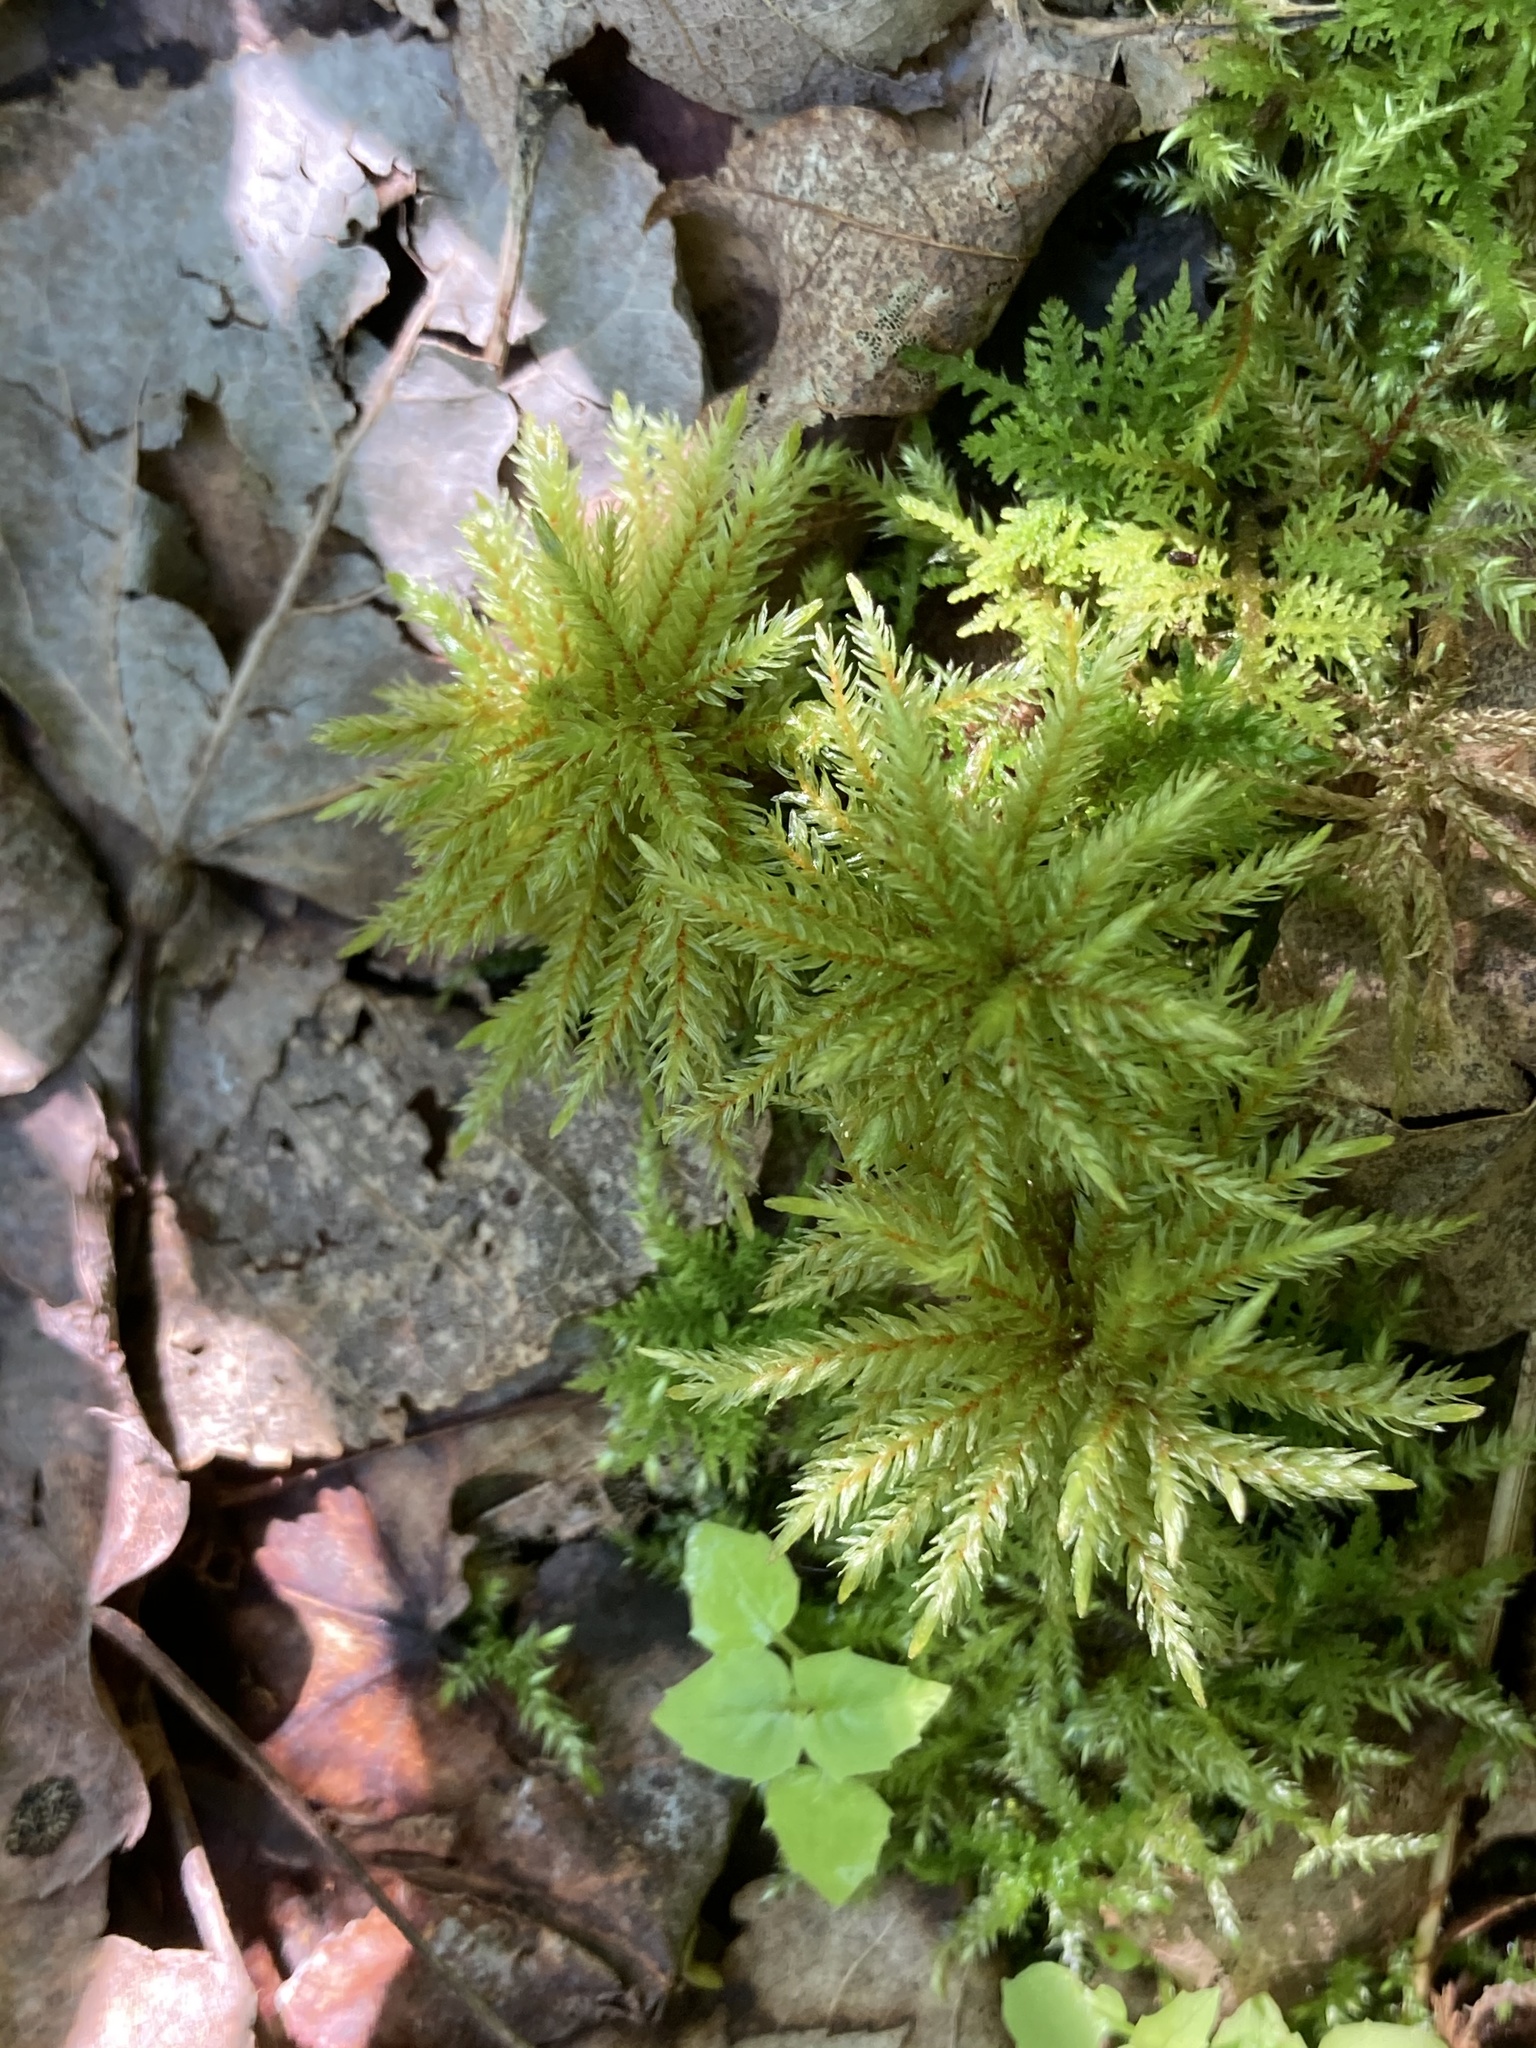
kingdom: Plantae
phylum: Bryophyta
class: Bryopsida
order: Hypnales
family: Climaciaceae
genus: Climacium
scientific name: Climacium dendroides
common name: Northern tree moss
